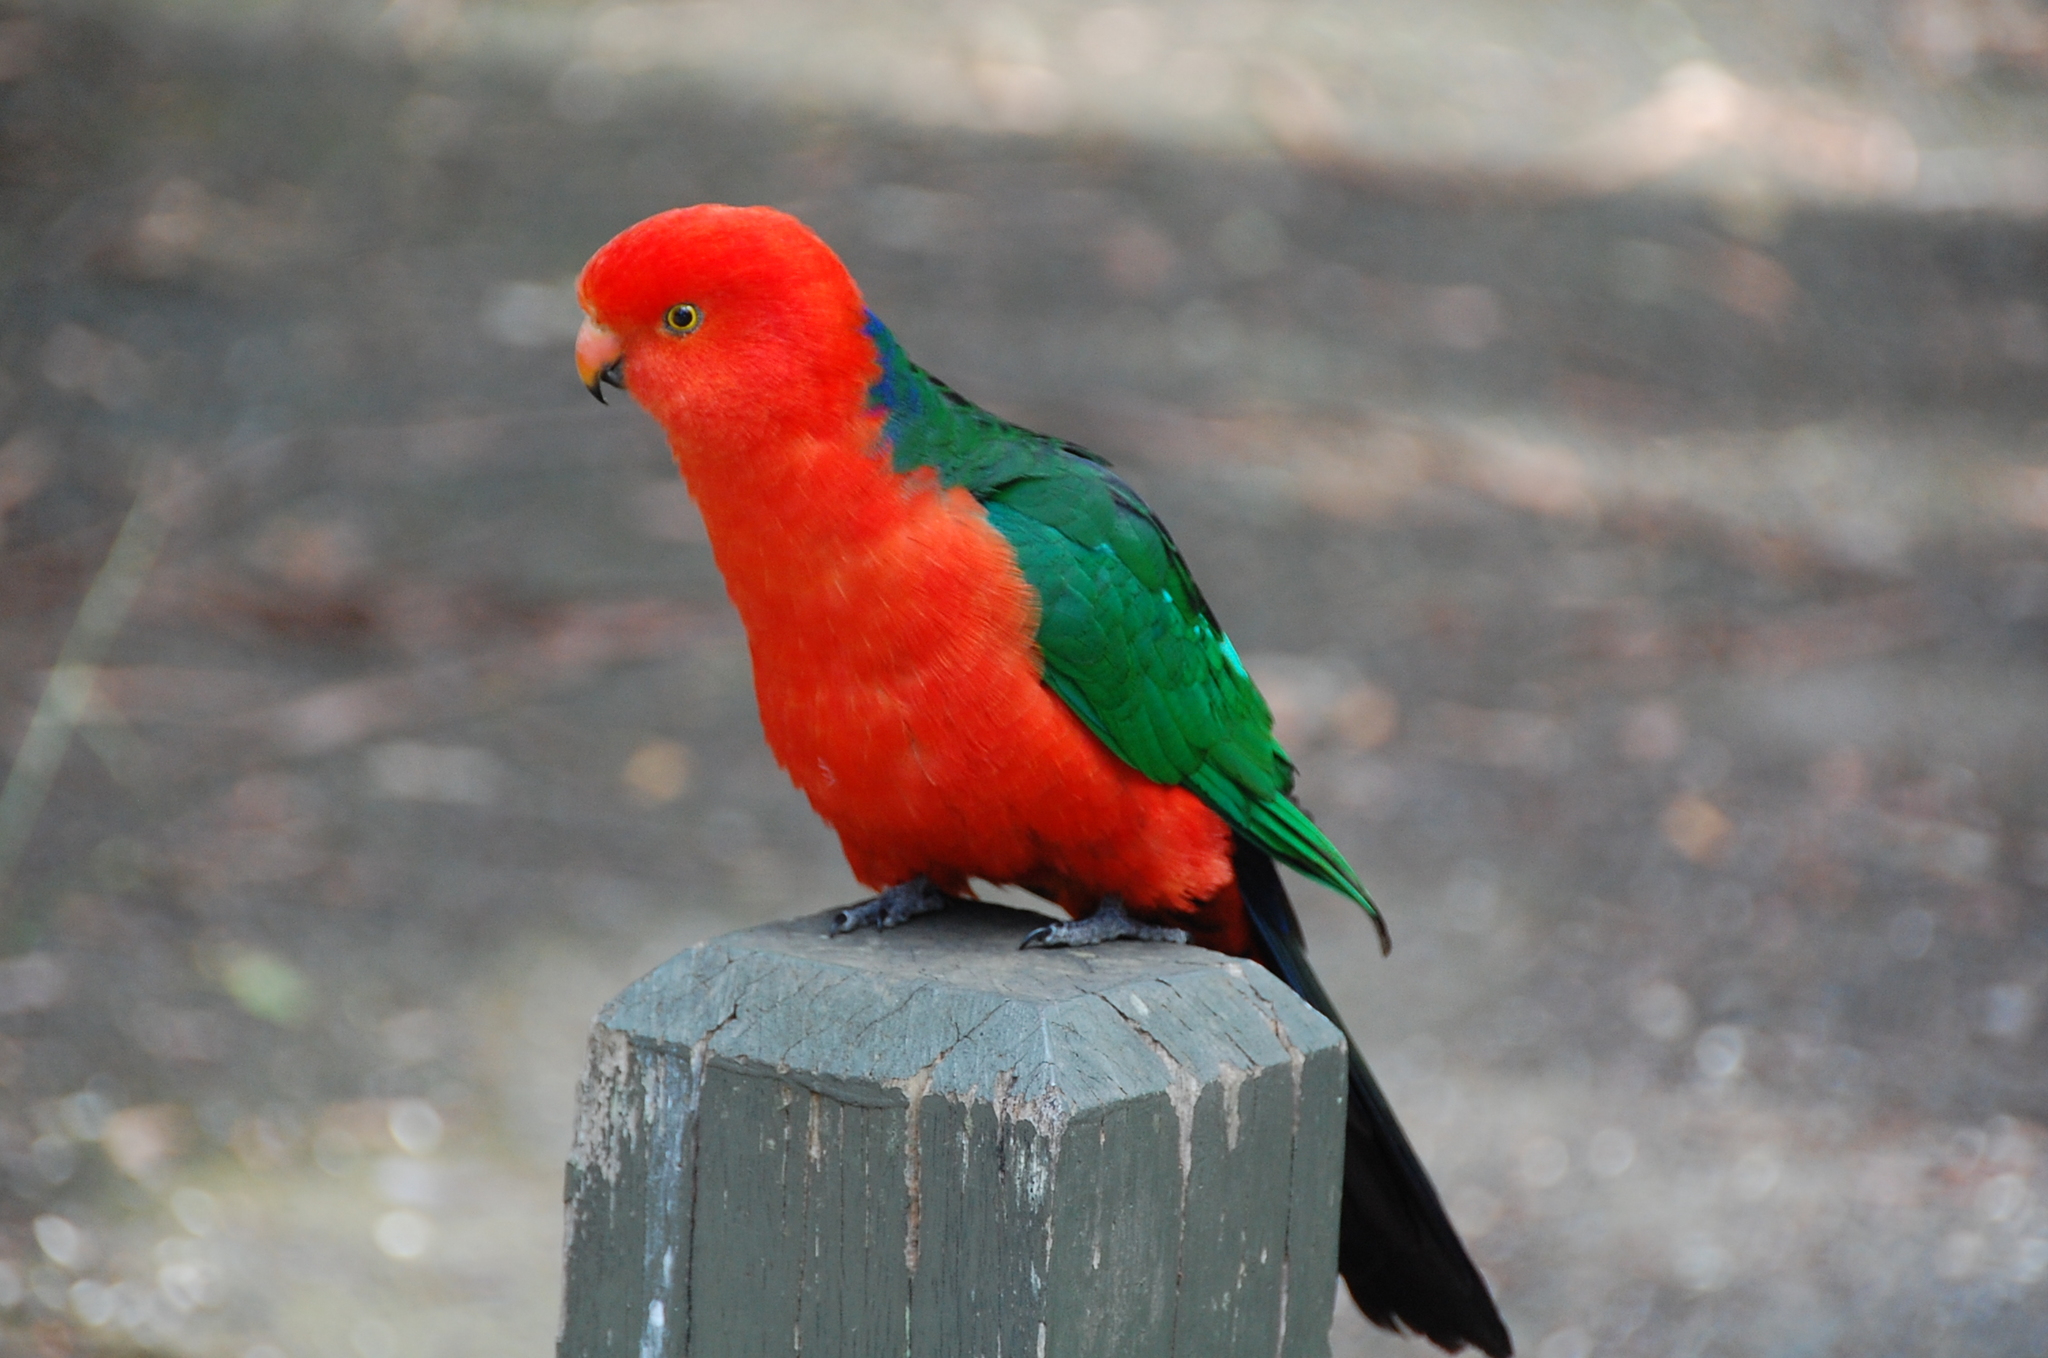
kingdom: Animalia
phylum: Chordata
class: Aves
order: Psittaciformes
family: Psittacidae
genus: Alisterus
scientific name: Alisterus scapularis
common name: Australian king parrot
